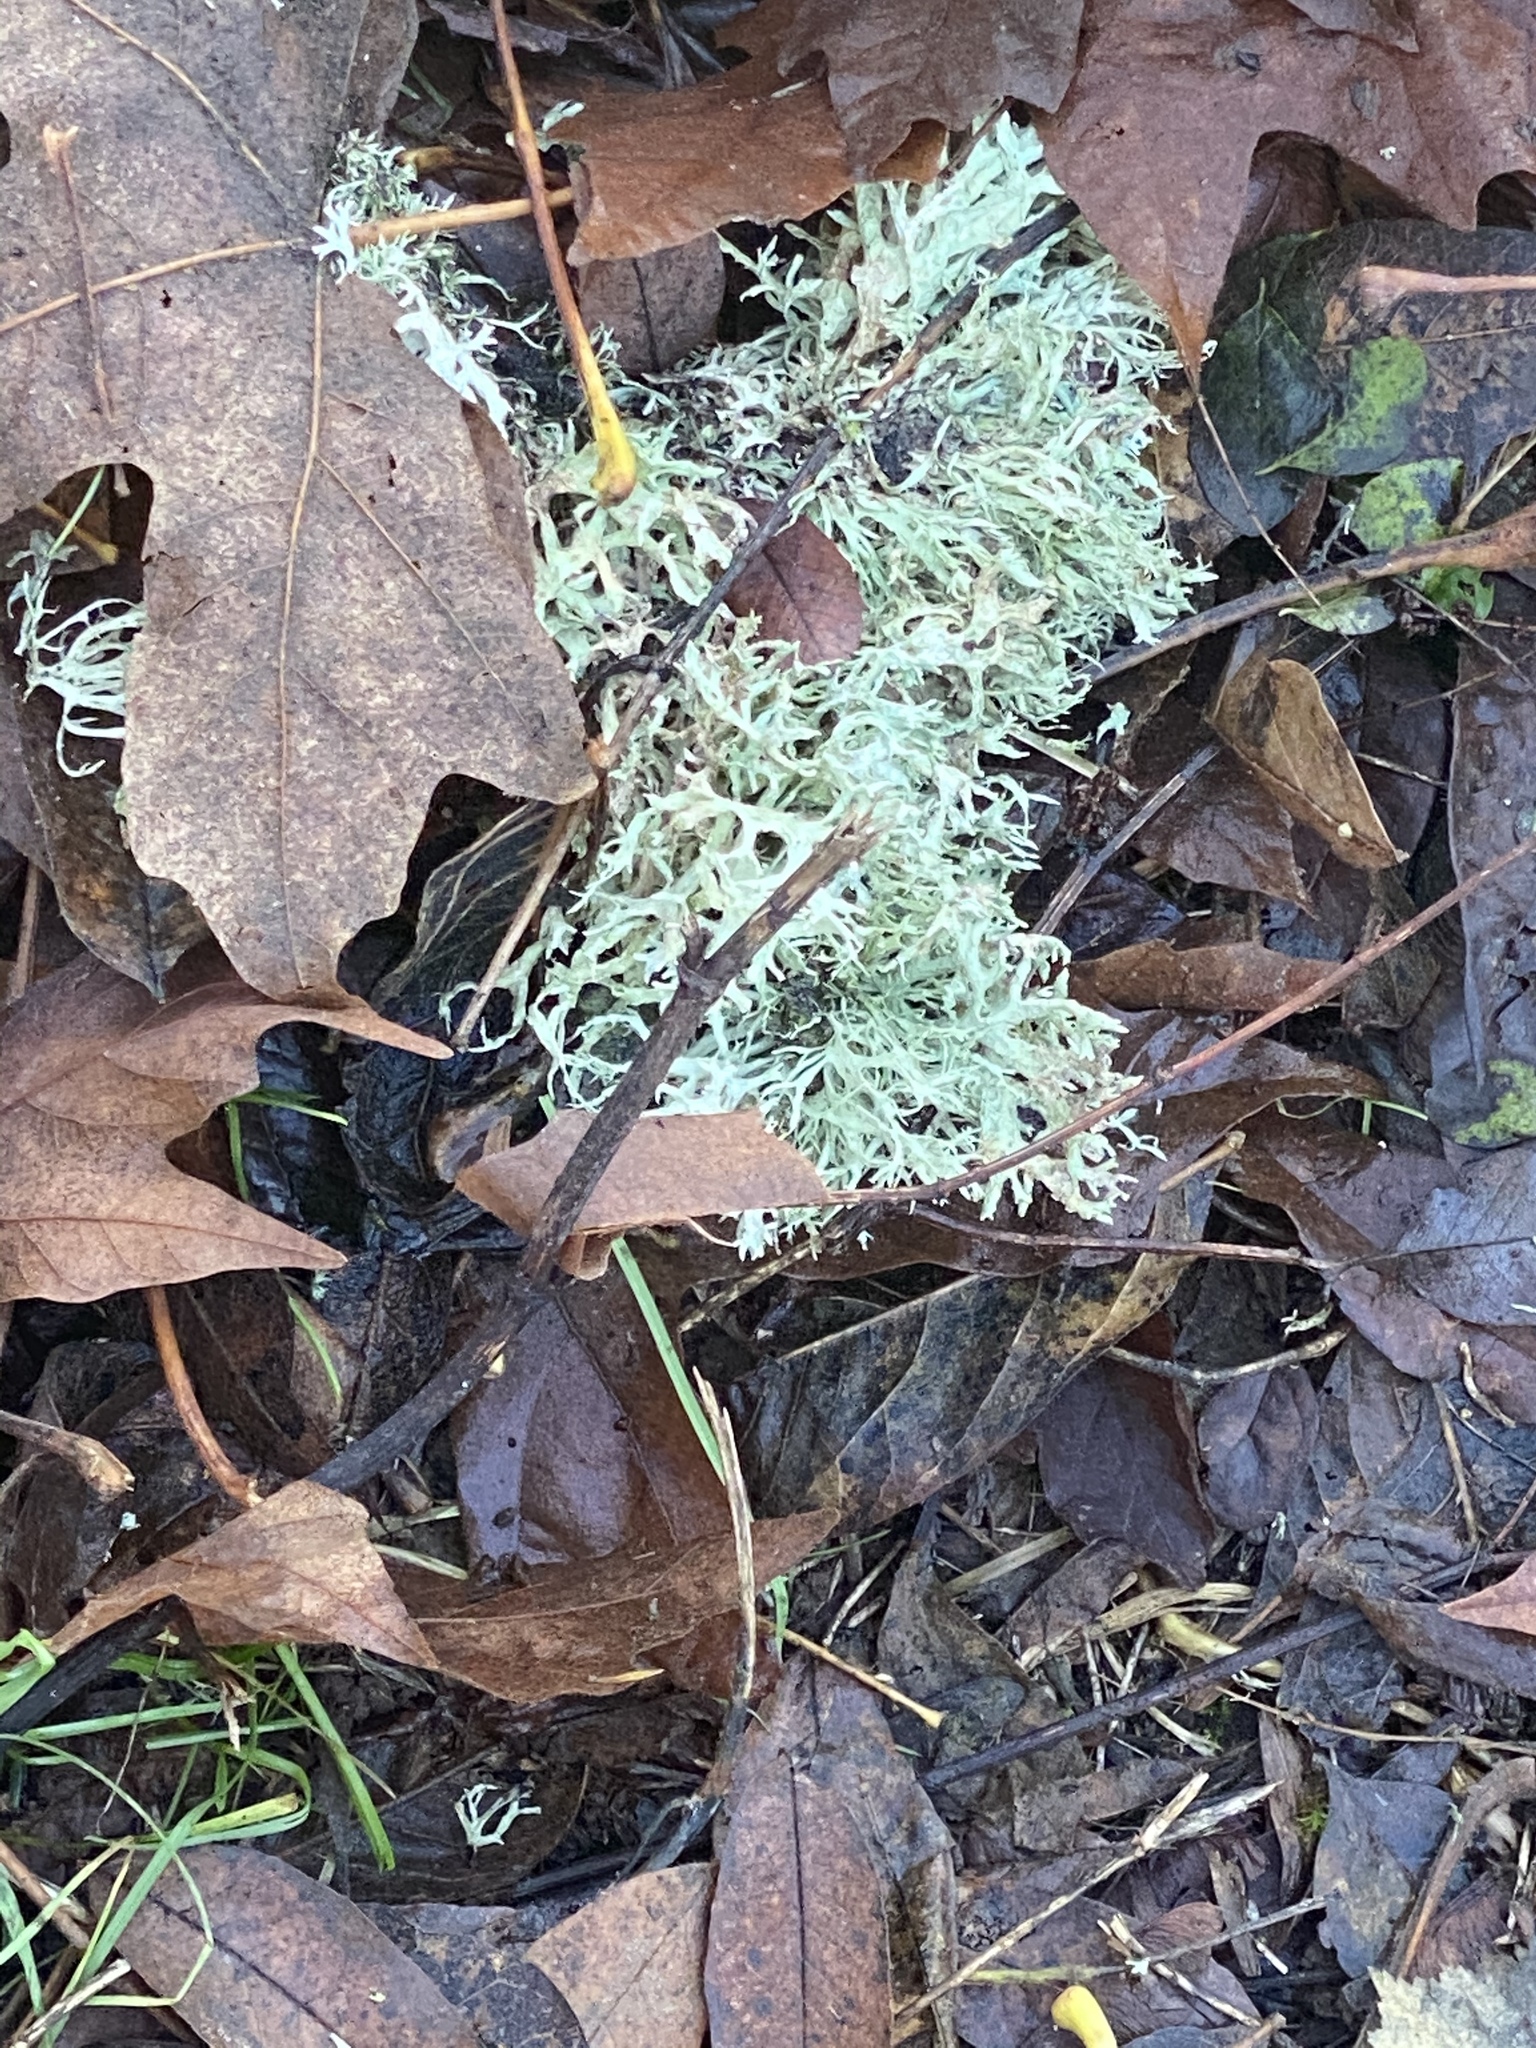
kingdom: Fungi
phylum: Ascomycota
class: Lecanoromycetes
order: Lecanorales
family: Parmeliaceae
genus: Evernia
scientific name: Evernia prunastri
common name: Oak moss
